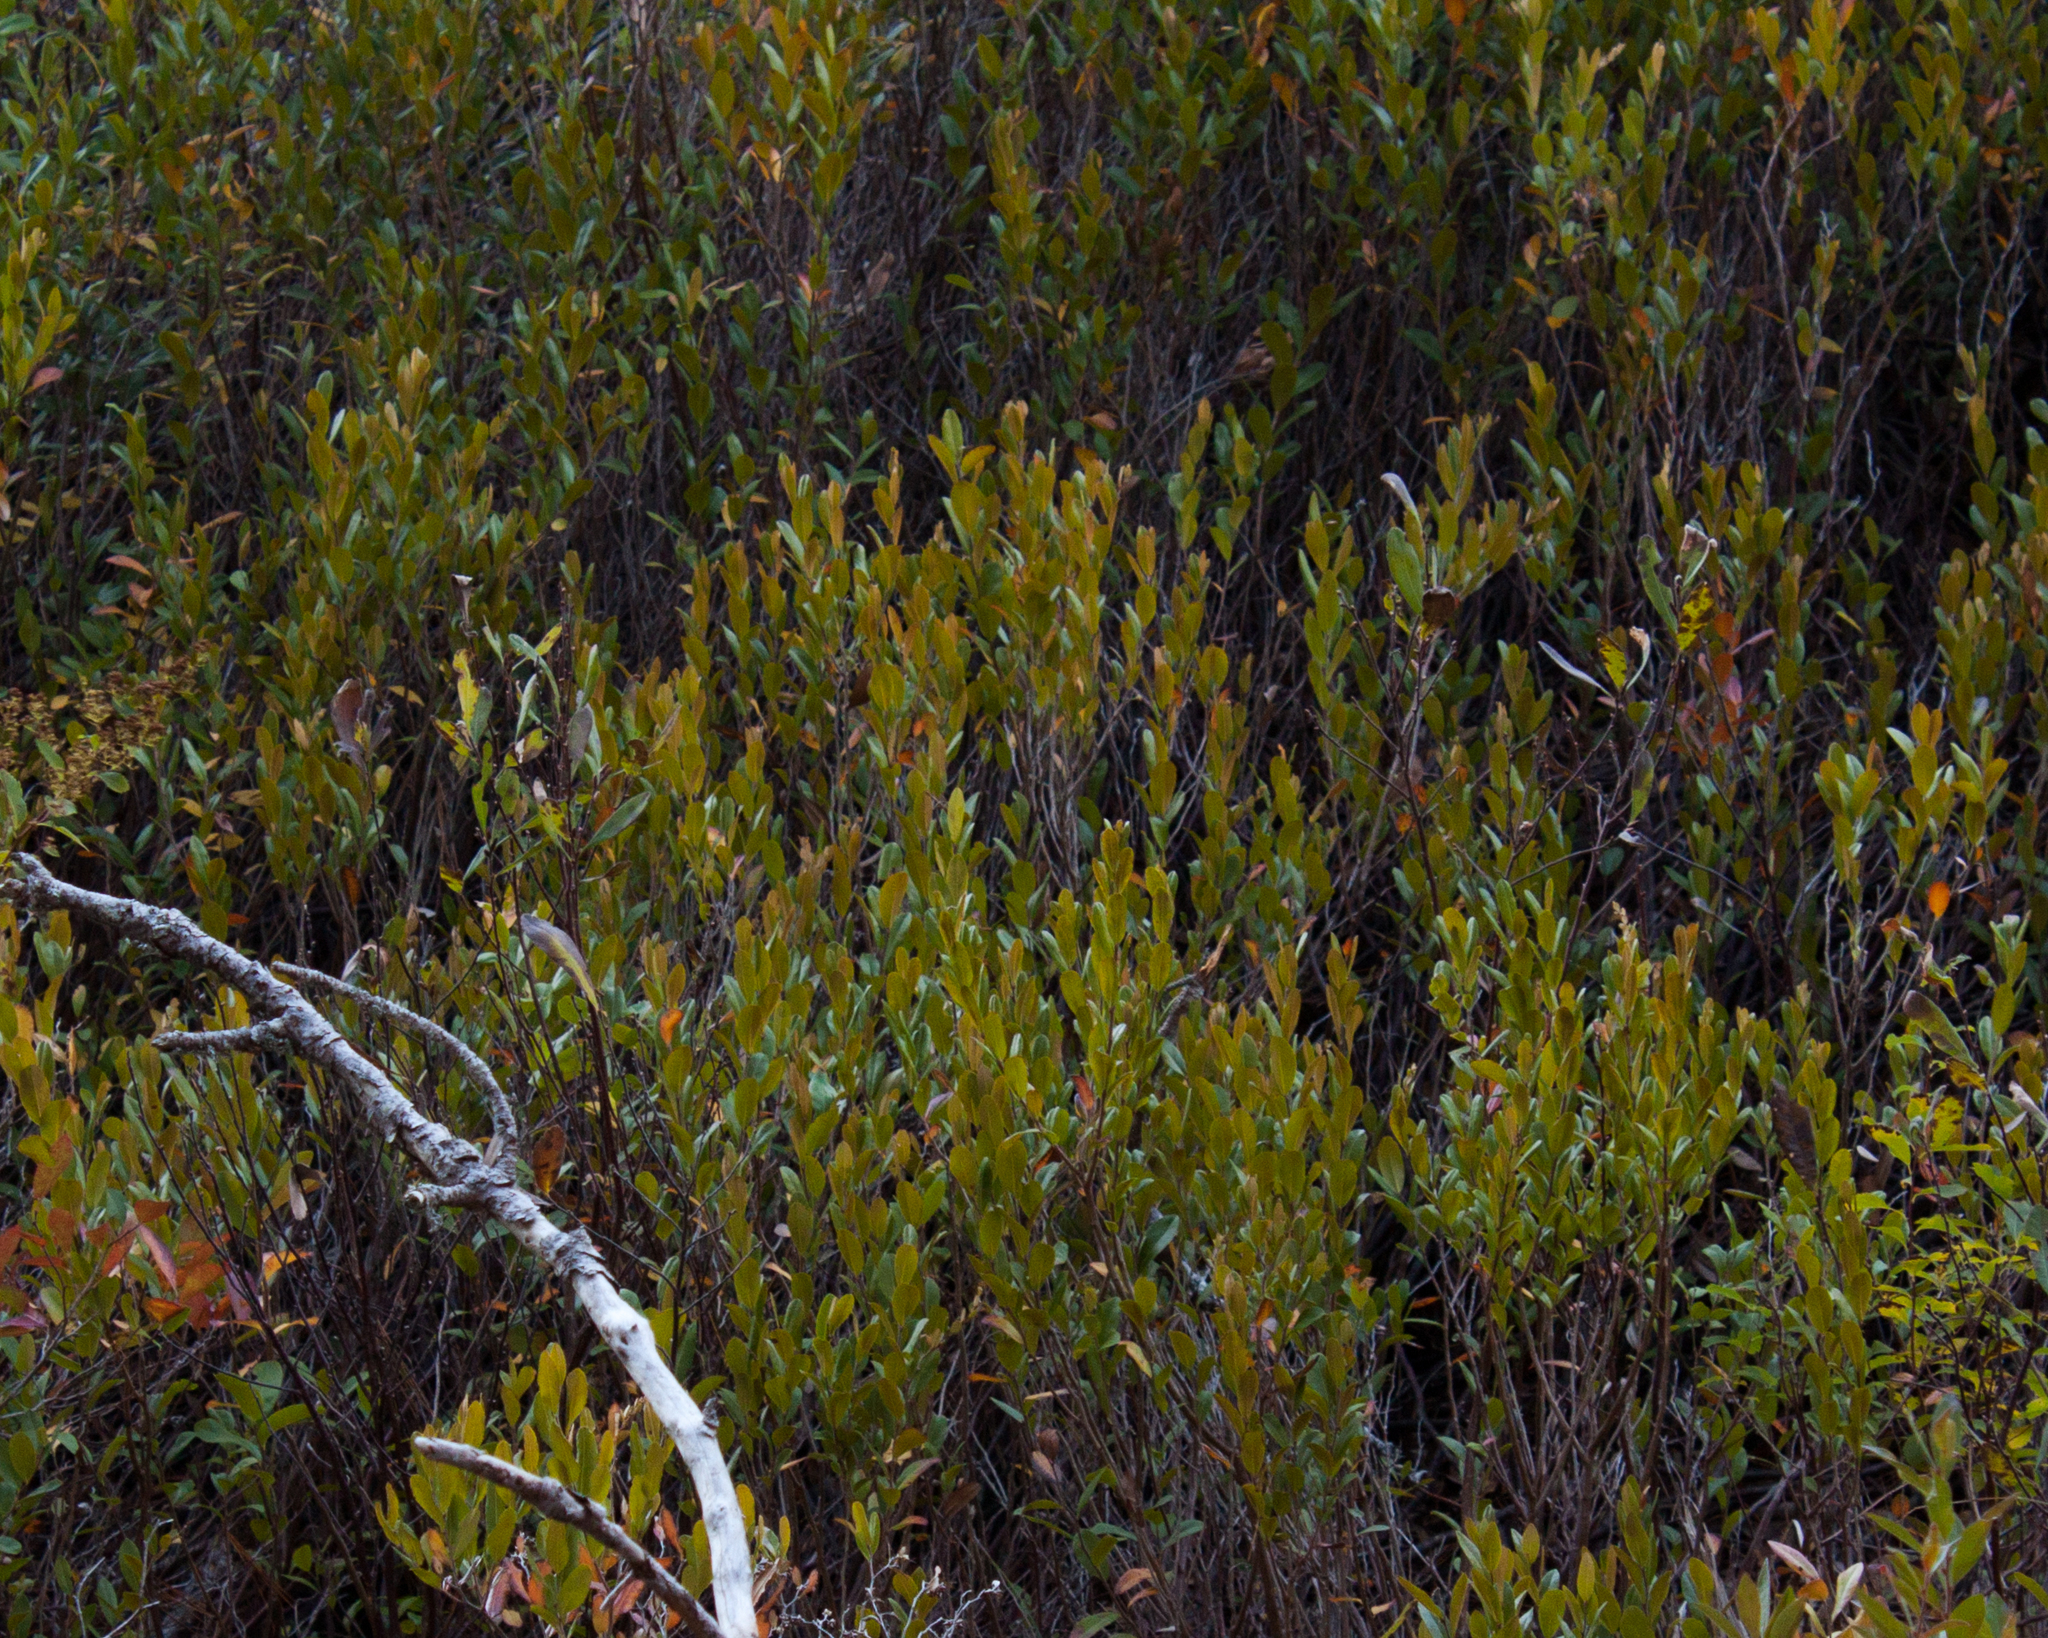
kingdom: Plantae
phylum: Tracheophyta
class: Magnoliopsida
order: Ericales
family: Ericaceae
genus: Chamaedaphne
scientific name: Chamaedaphne calyculata
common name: Leatherleaf
